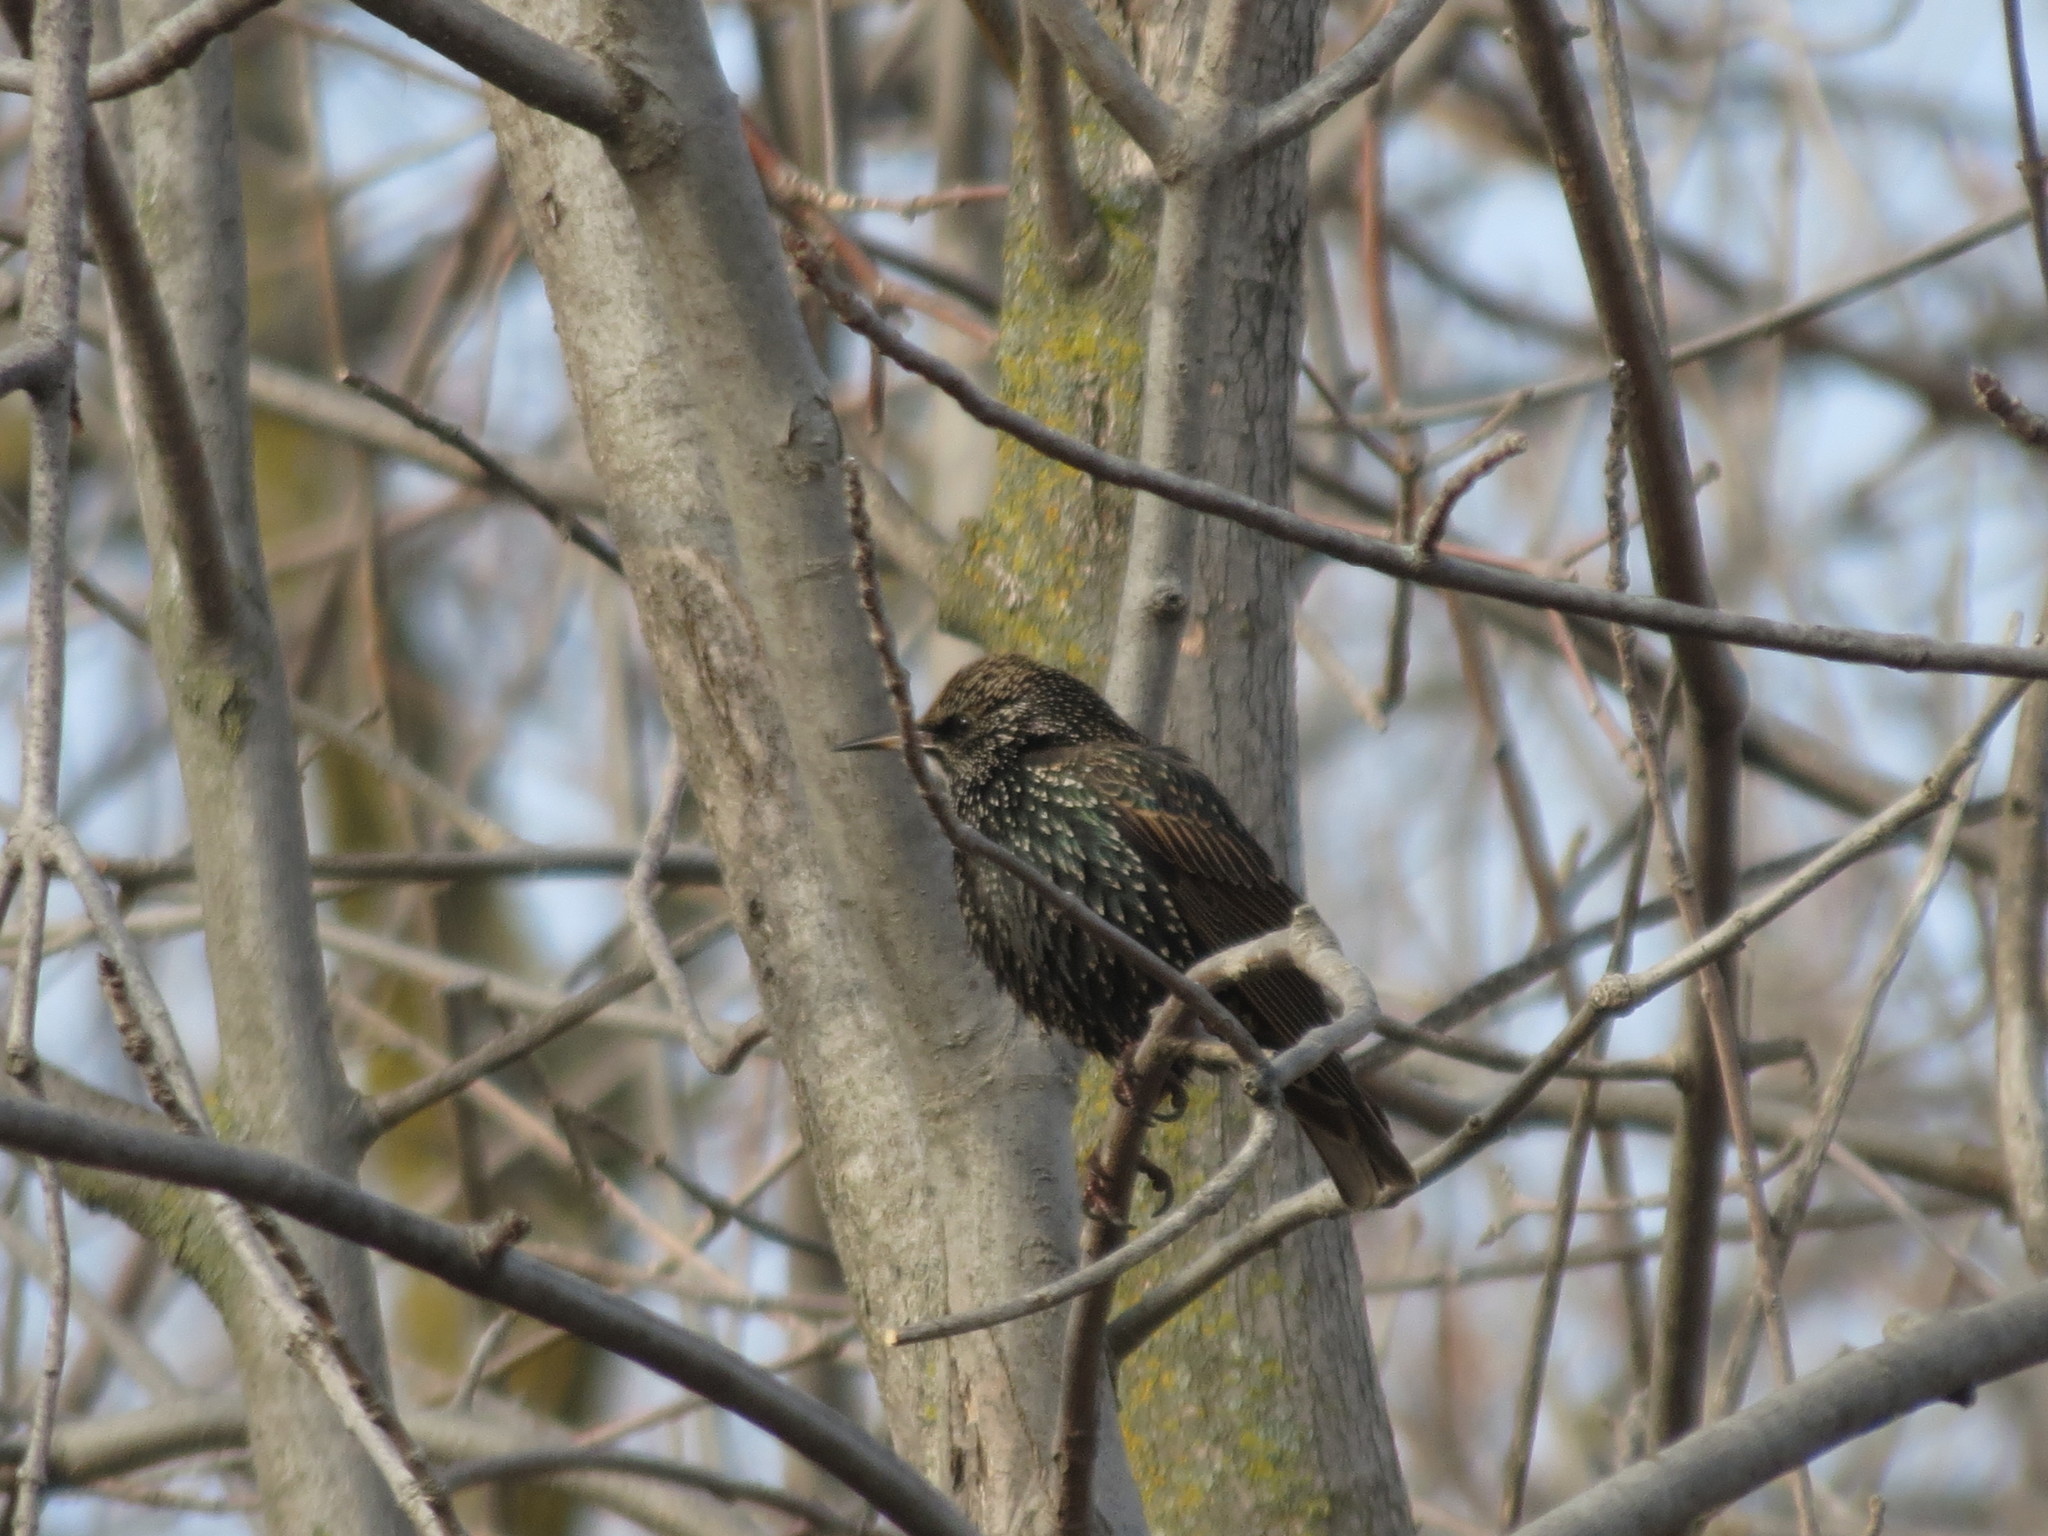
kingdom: Animalia
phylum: Chordata
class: Aves
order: Passeriformes
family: Sturnidae
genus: Sturnus
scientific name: Sturnus vulgaris
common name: Common starling
